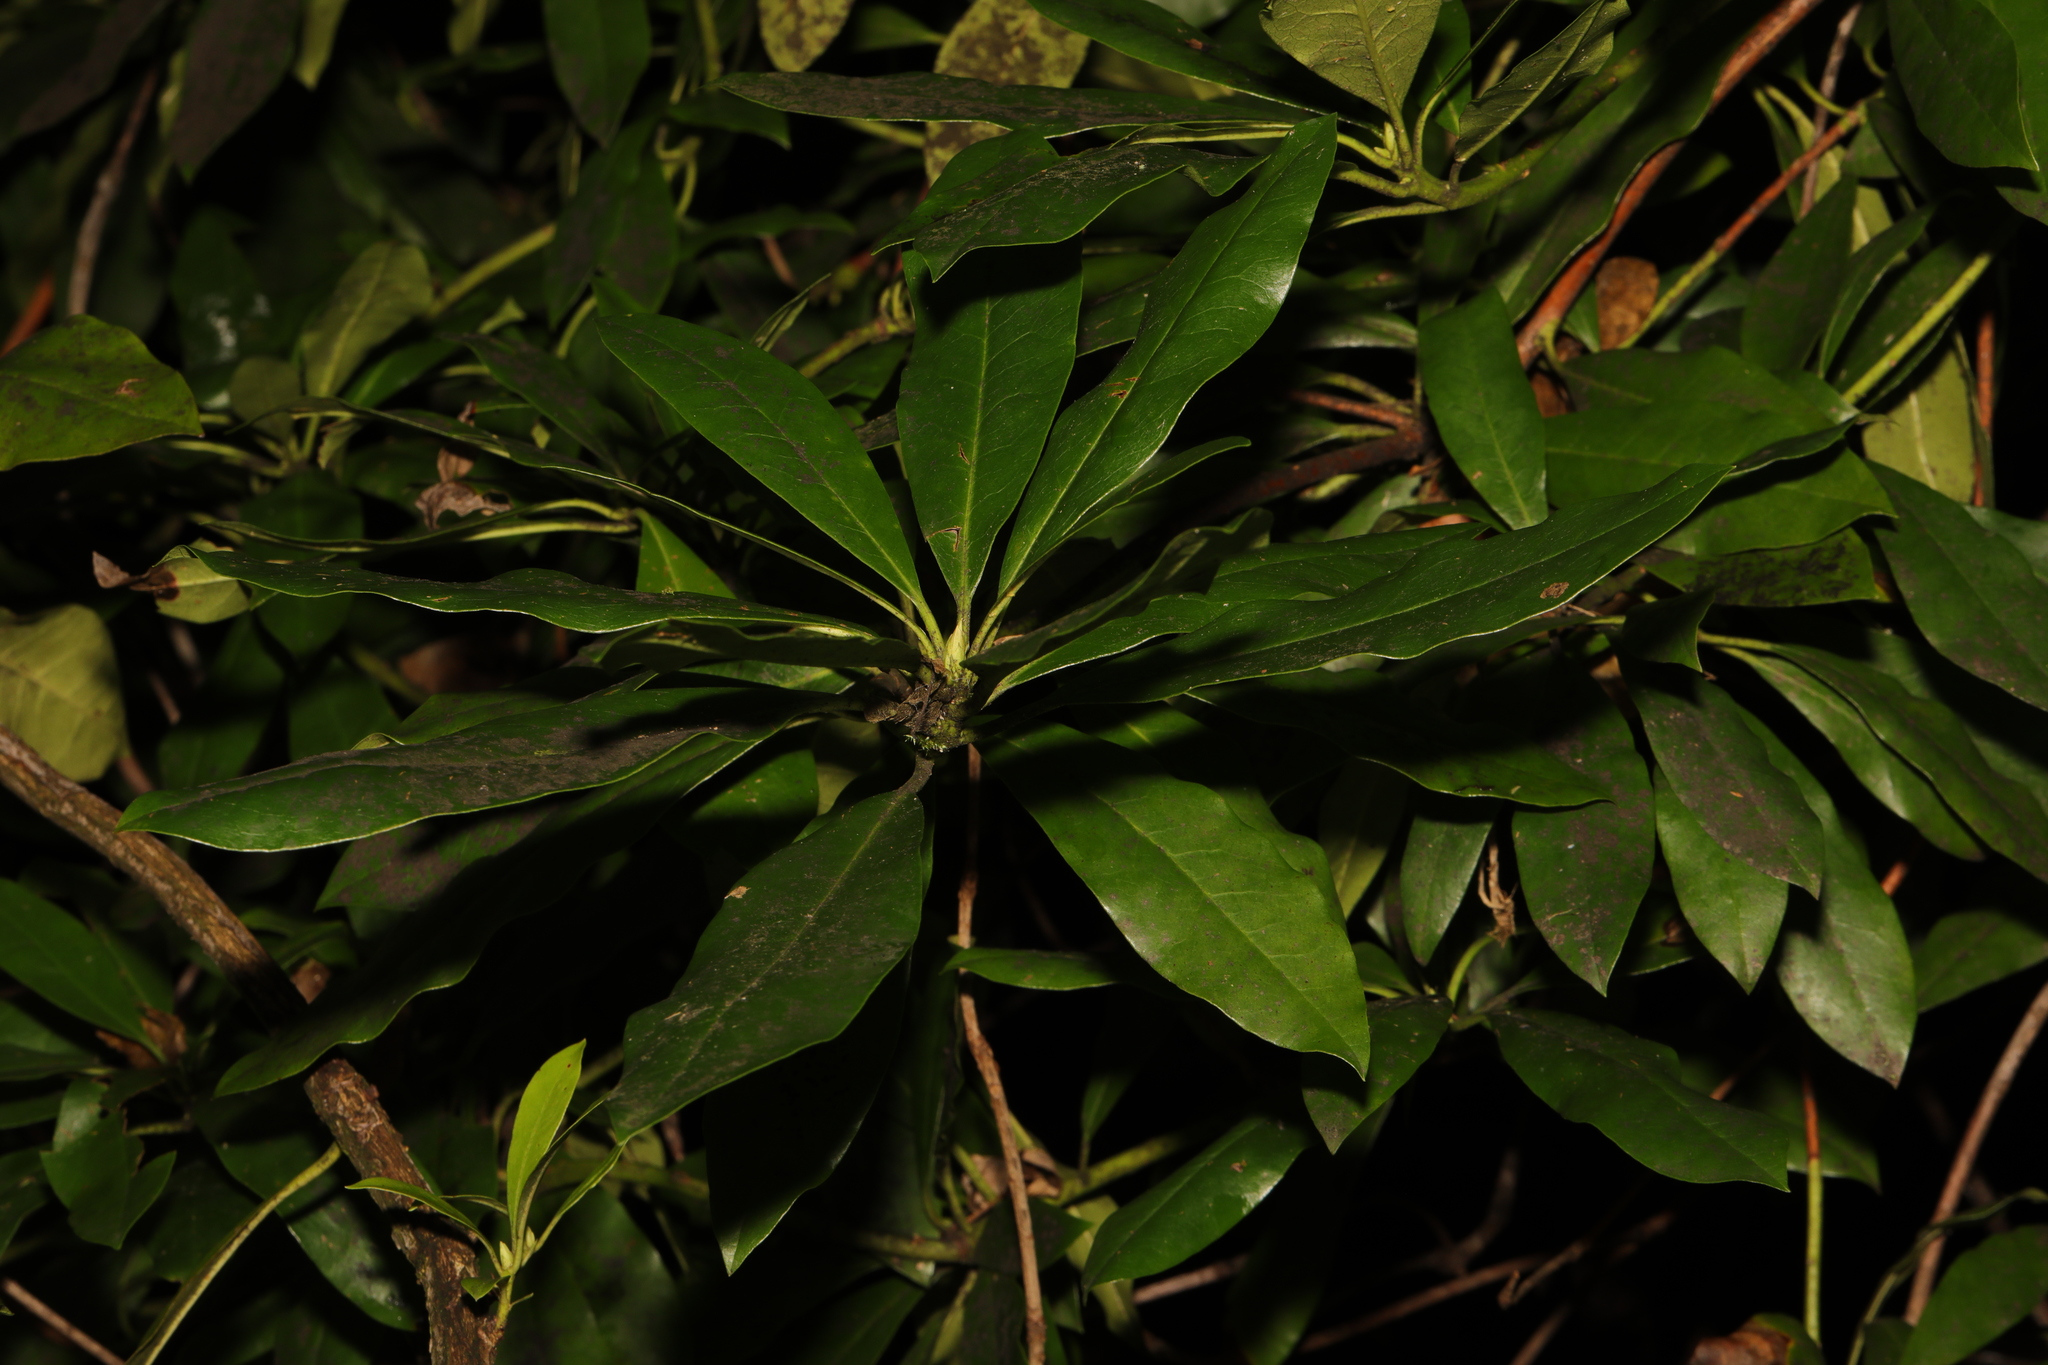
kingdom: Plantae
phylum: Tracheophyta
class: Magnoliopsida
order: Ericales
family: Ericaceae
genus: Rhododendron
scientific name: Rhododendron ponticum
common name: Rhododendron
